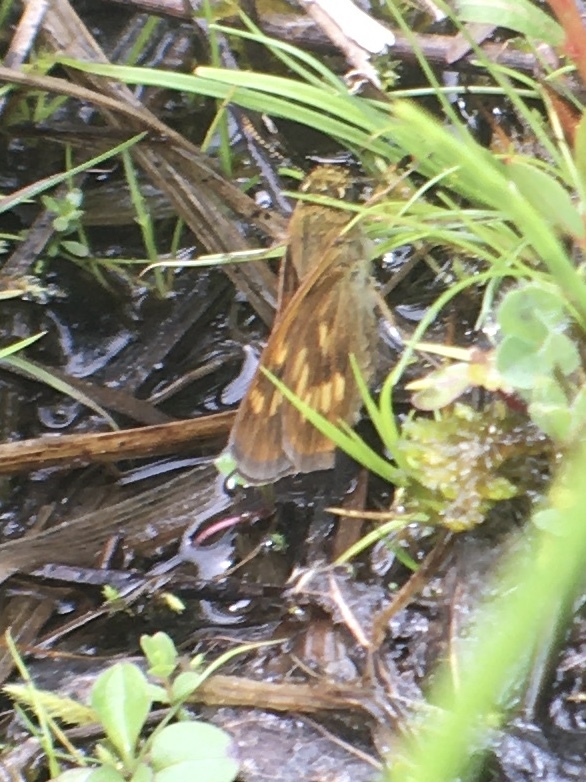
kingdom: Animalia
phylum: Arthropoda
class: Insecta
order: Lepidoptera
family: Hesperiidae
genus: Polites
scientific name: Polites mystic
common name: Long dash
